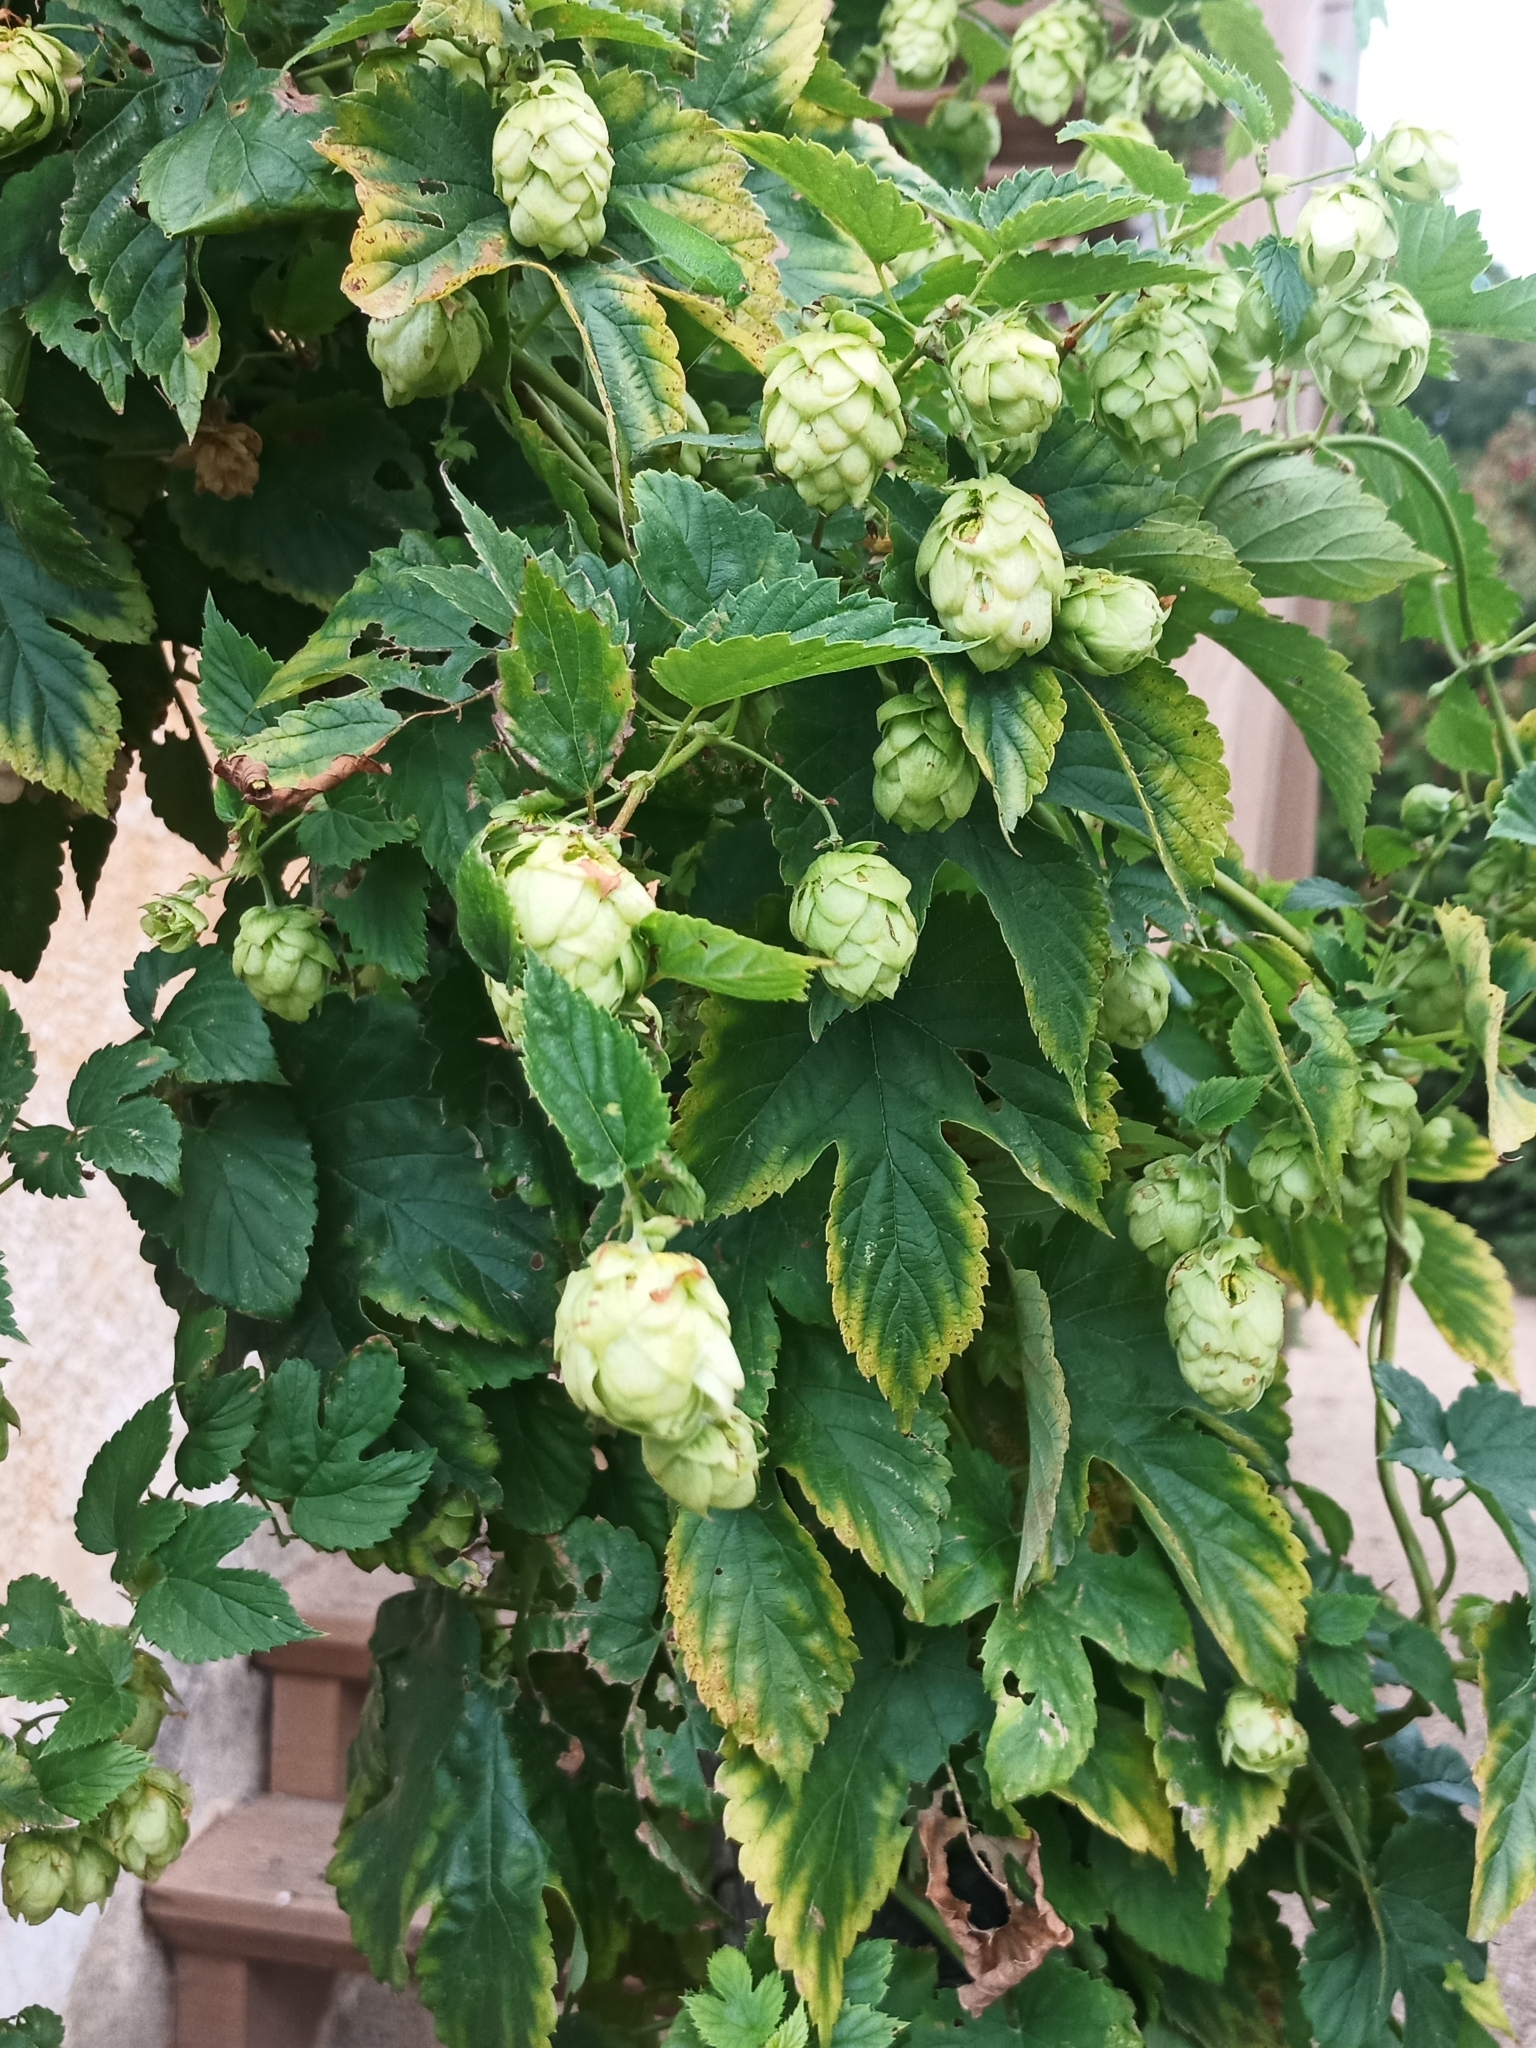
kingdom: Plantae
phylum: Tracheophyta
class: Magnoliopsida
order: Rosales
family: Cannabaceae
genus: Humulus
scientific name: Humulus lupulus
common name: Hop
